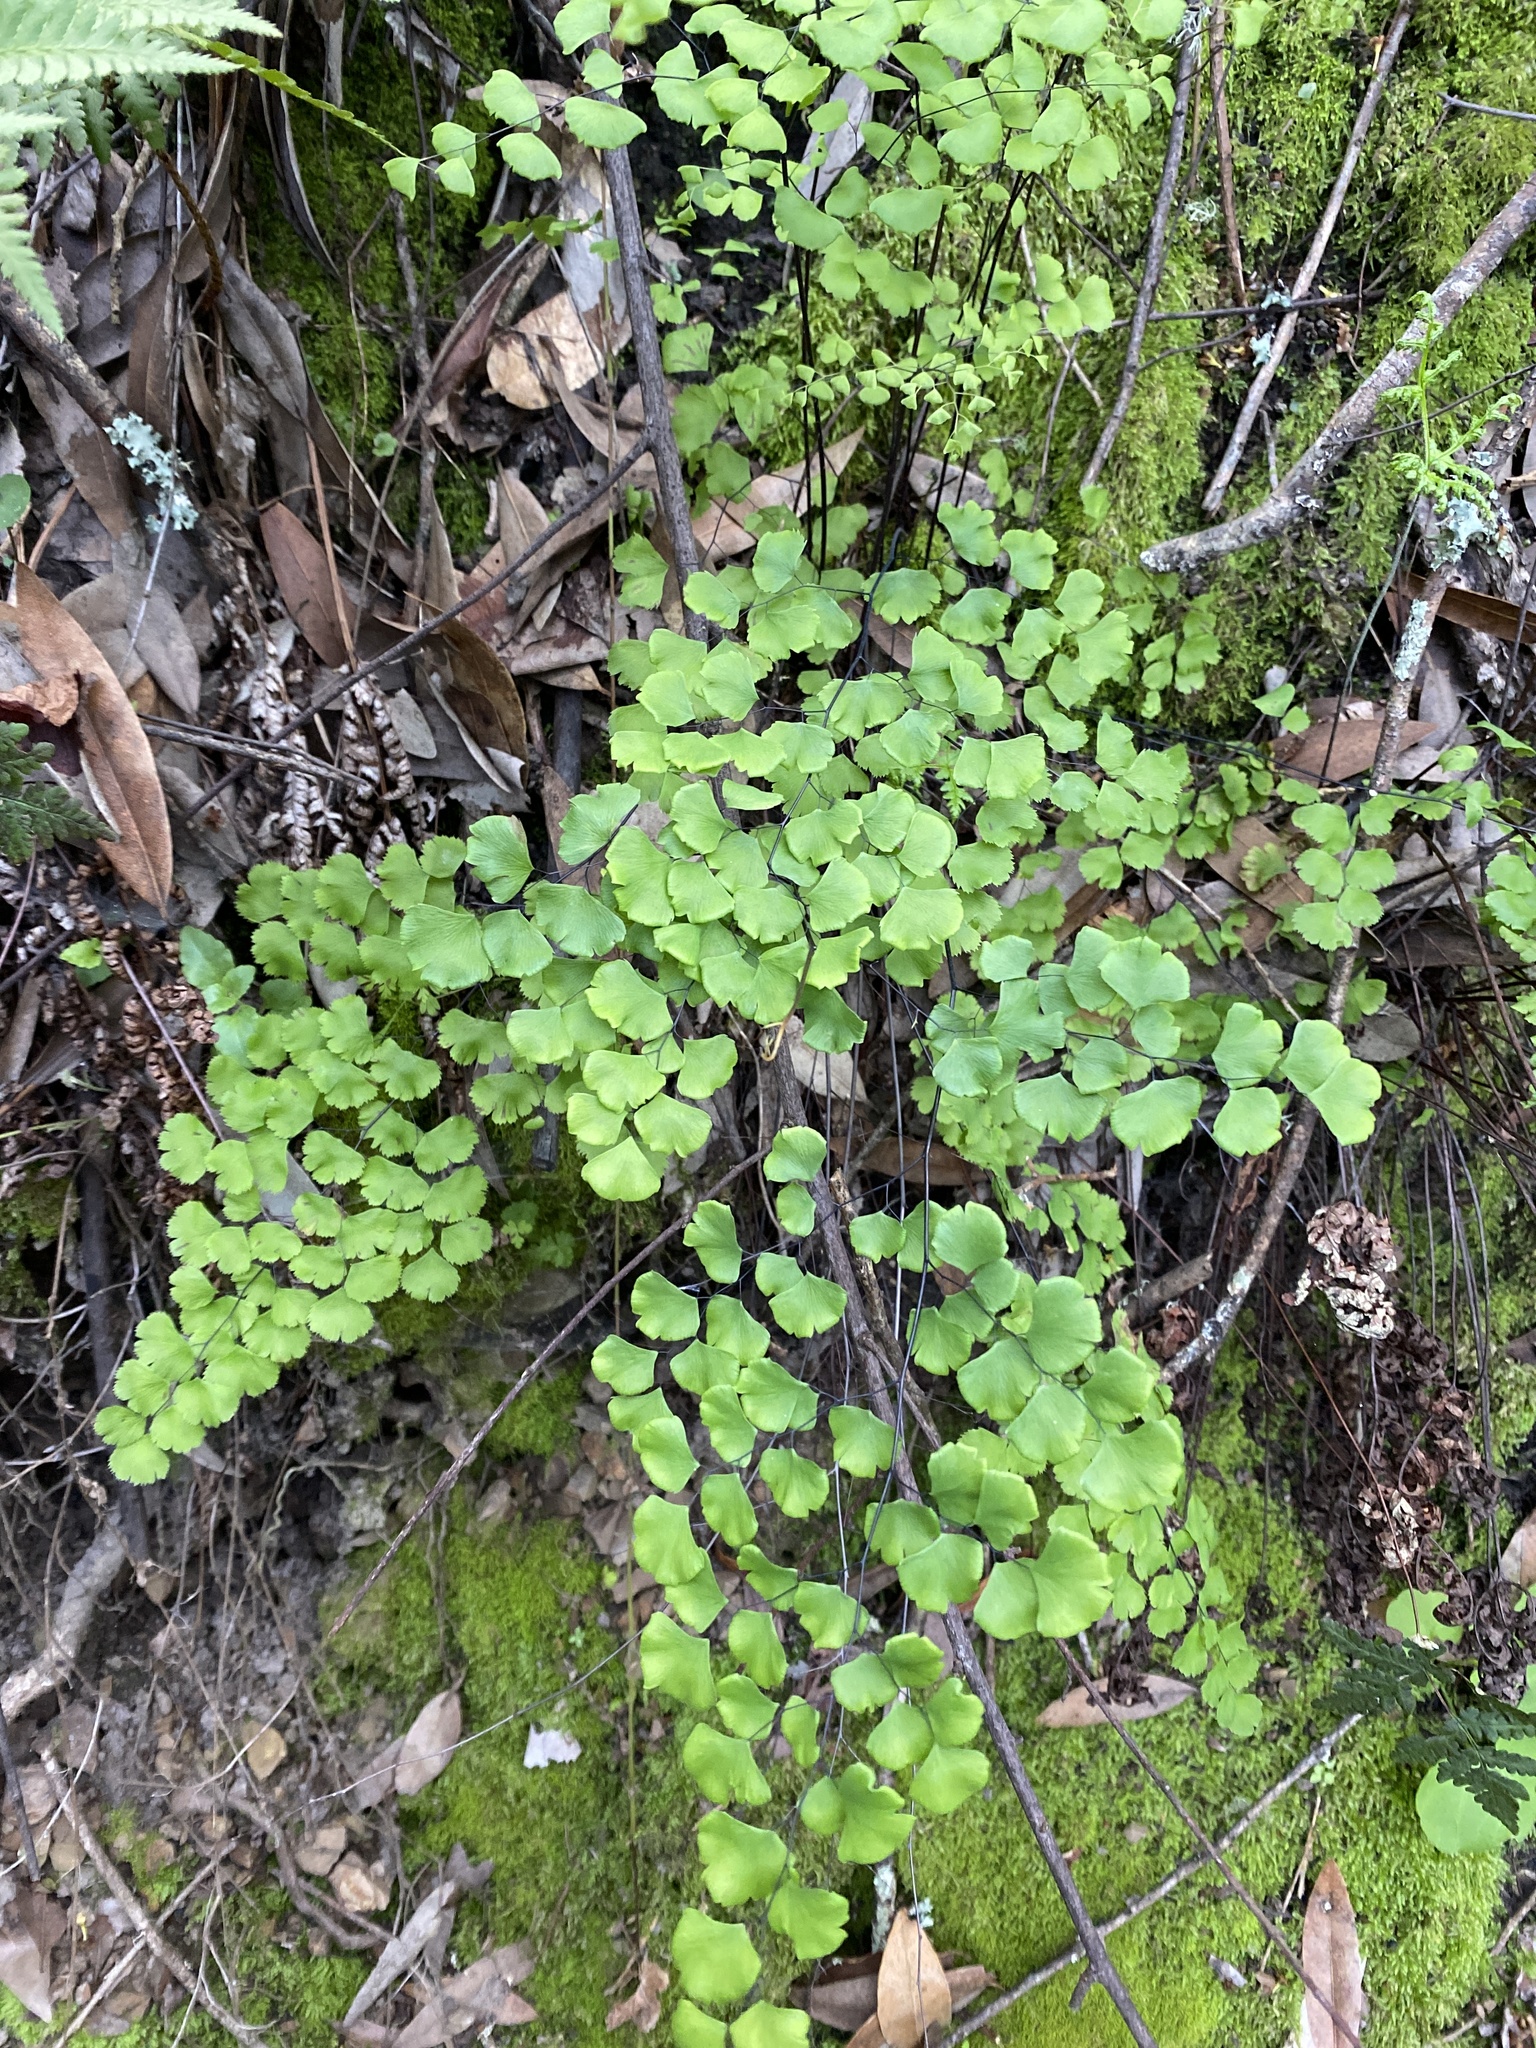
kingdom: Plantae
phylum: Tracheophyta
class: Polypodiopsida
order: Polypodiales
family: Pteridaceae
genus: Adiantum
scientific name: Adiantum jordanii
